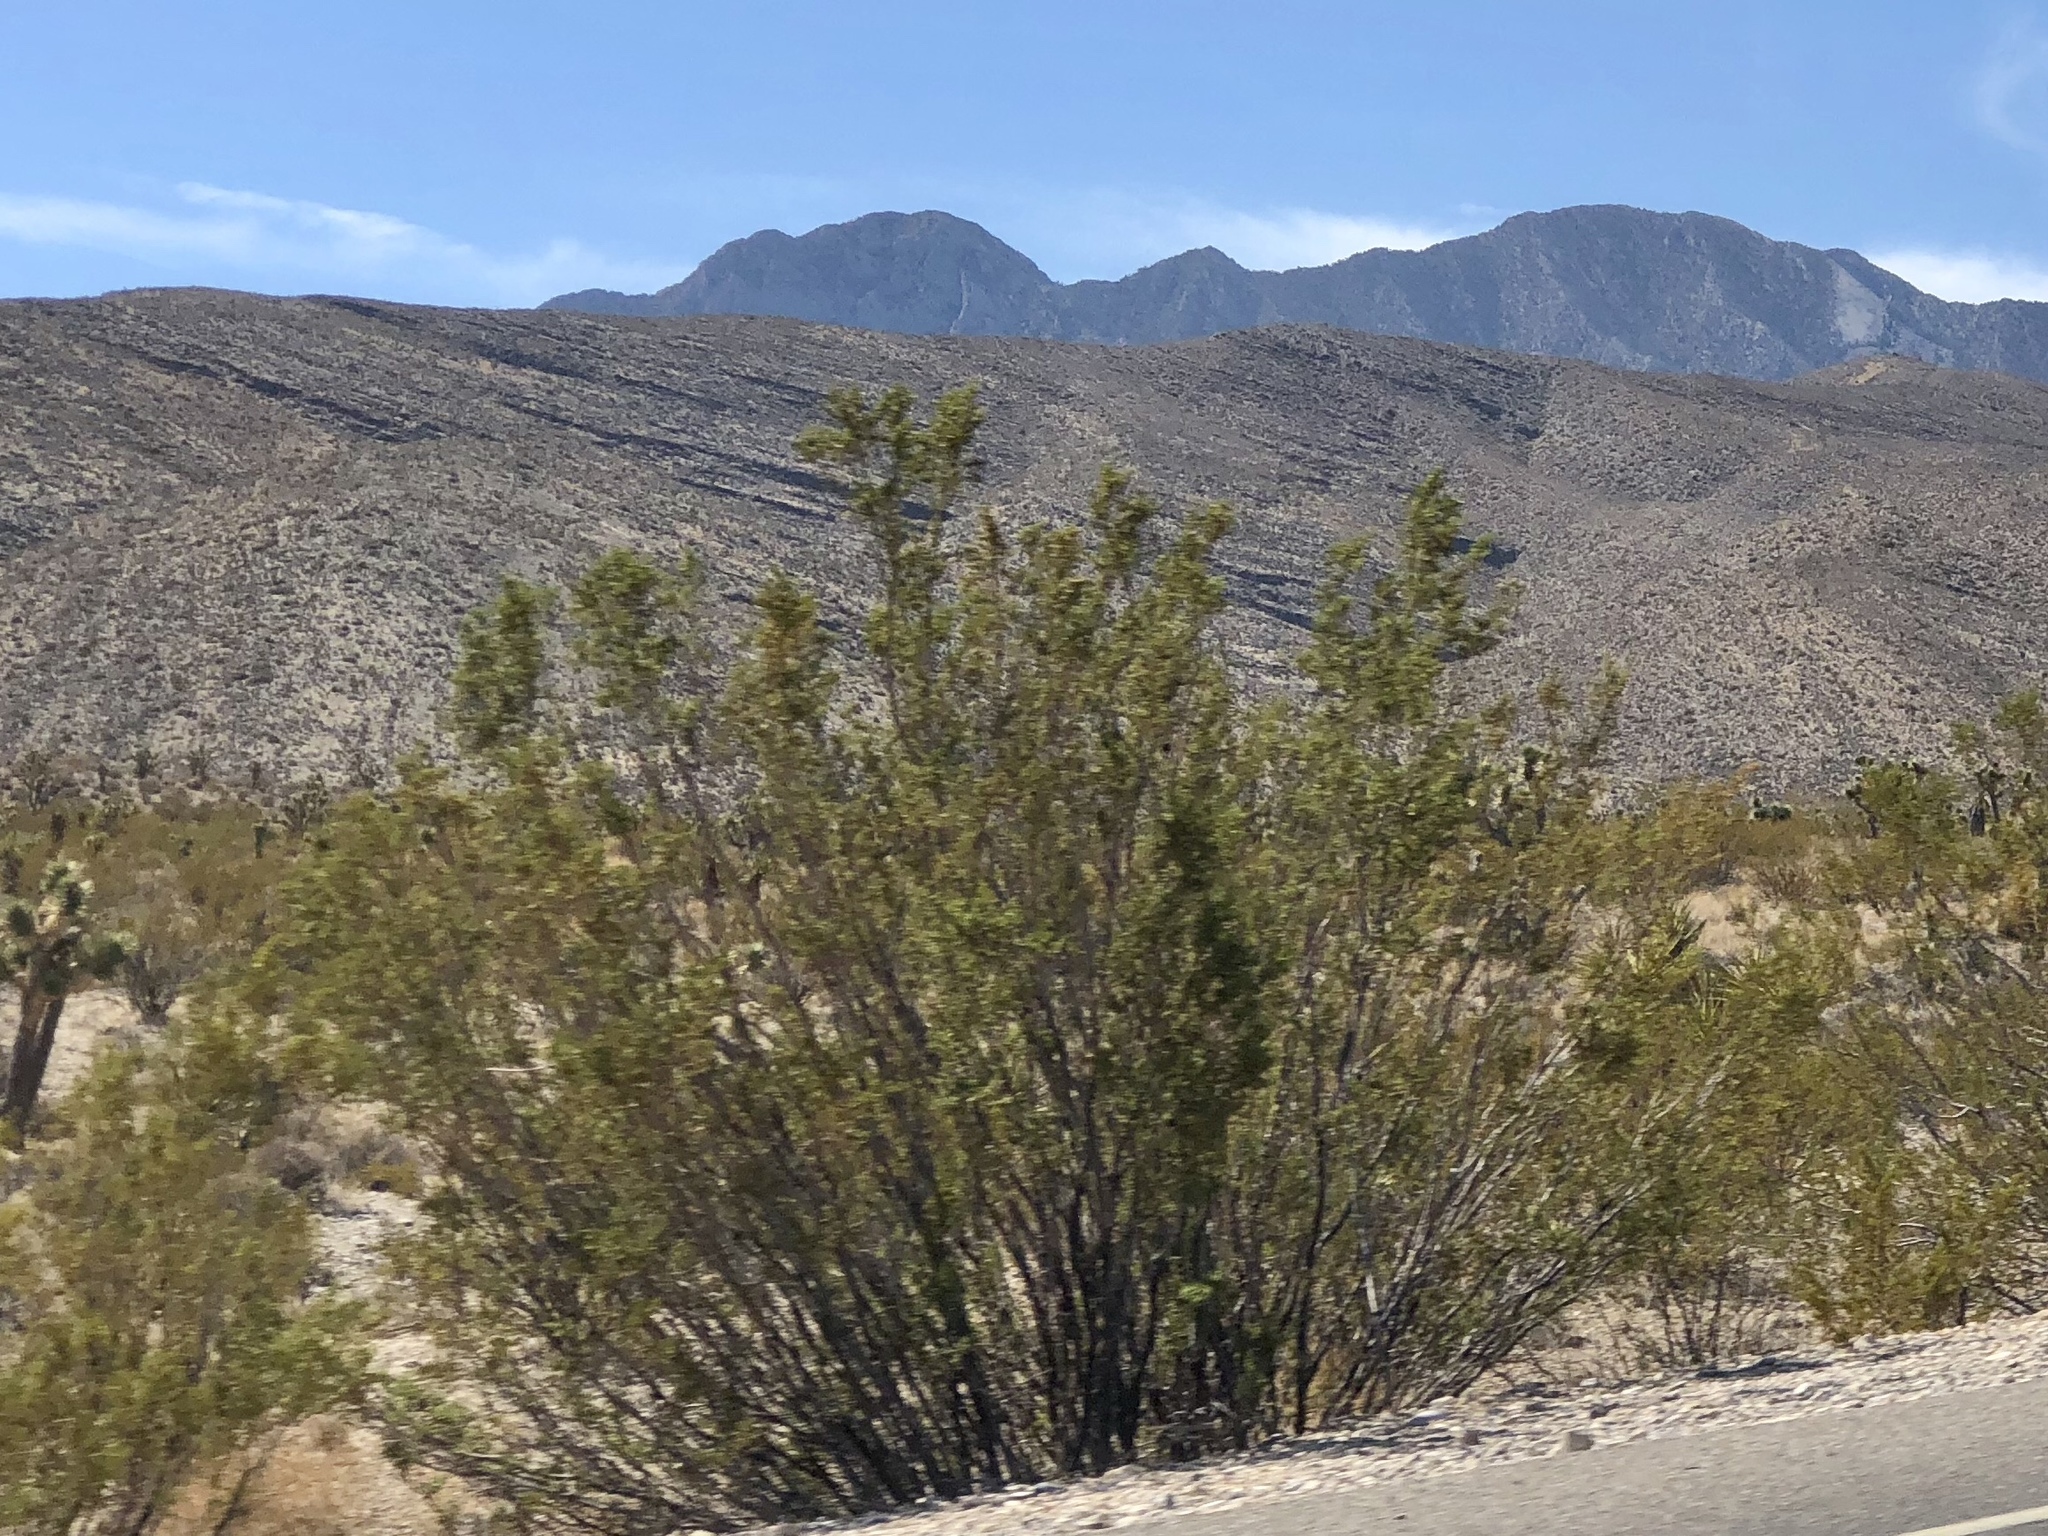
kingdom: Plantae
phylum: Tracheophyta
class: Magnoliopsida
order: Zygophyllales
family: Zygophyllaceae
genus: Larrea
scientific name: Larrea tridentata
